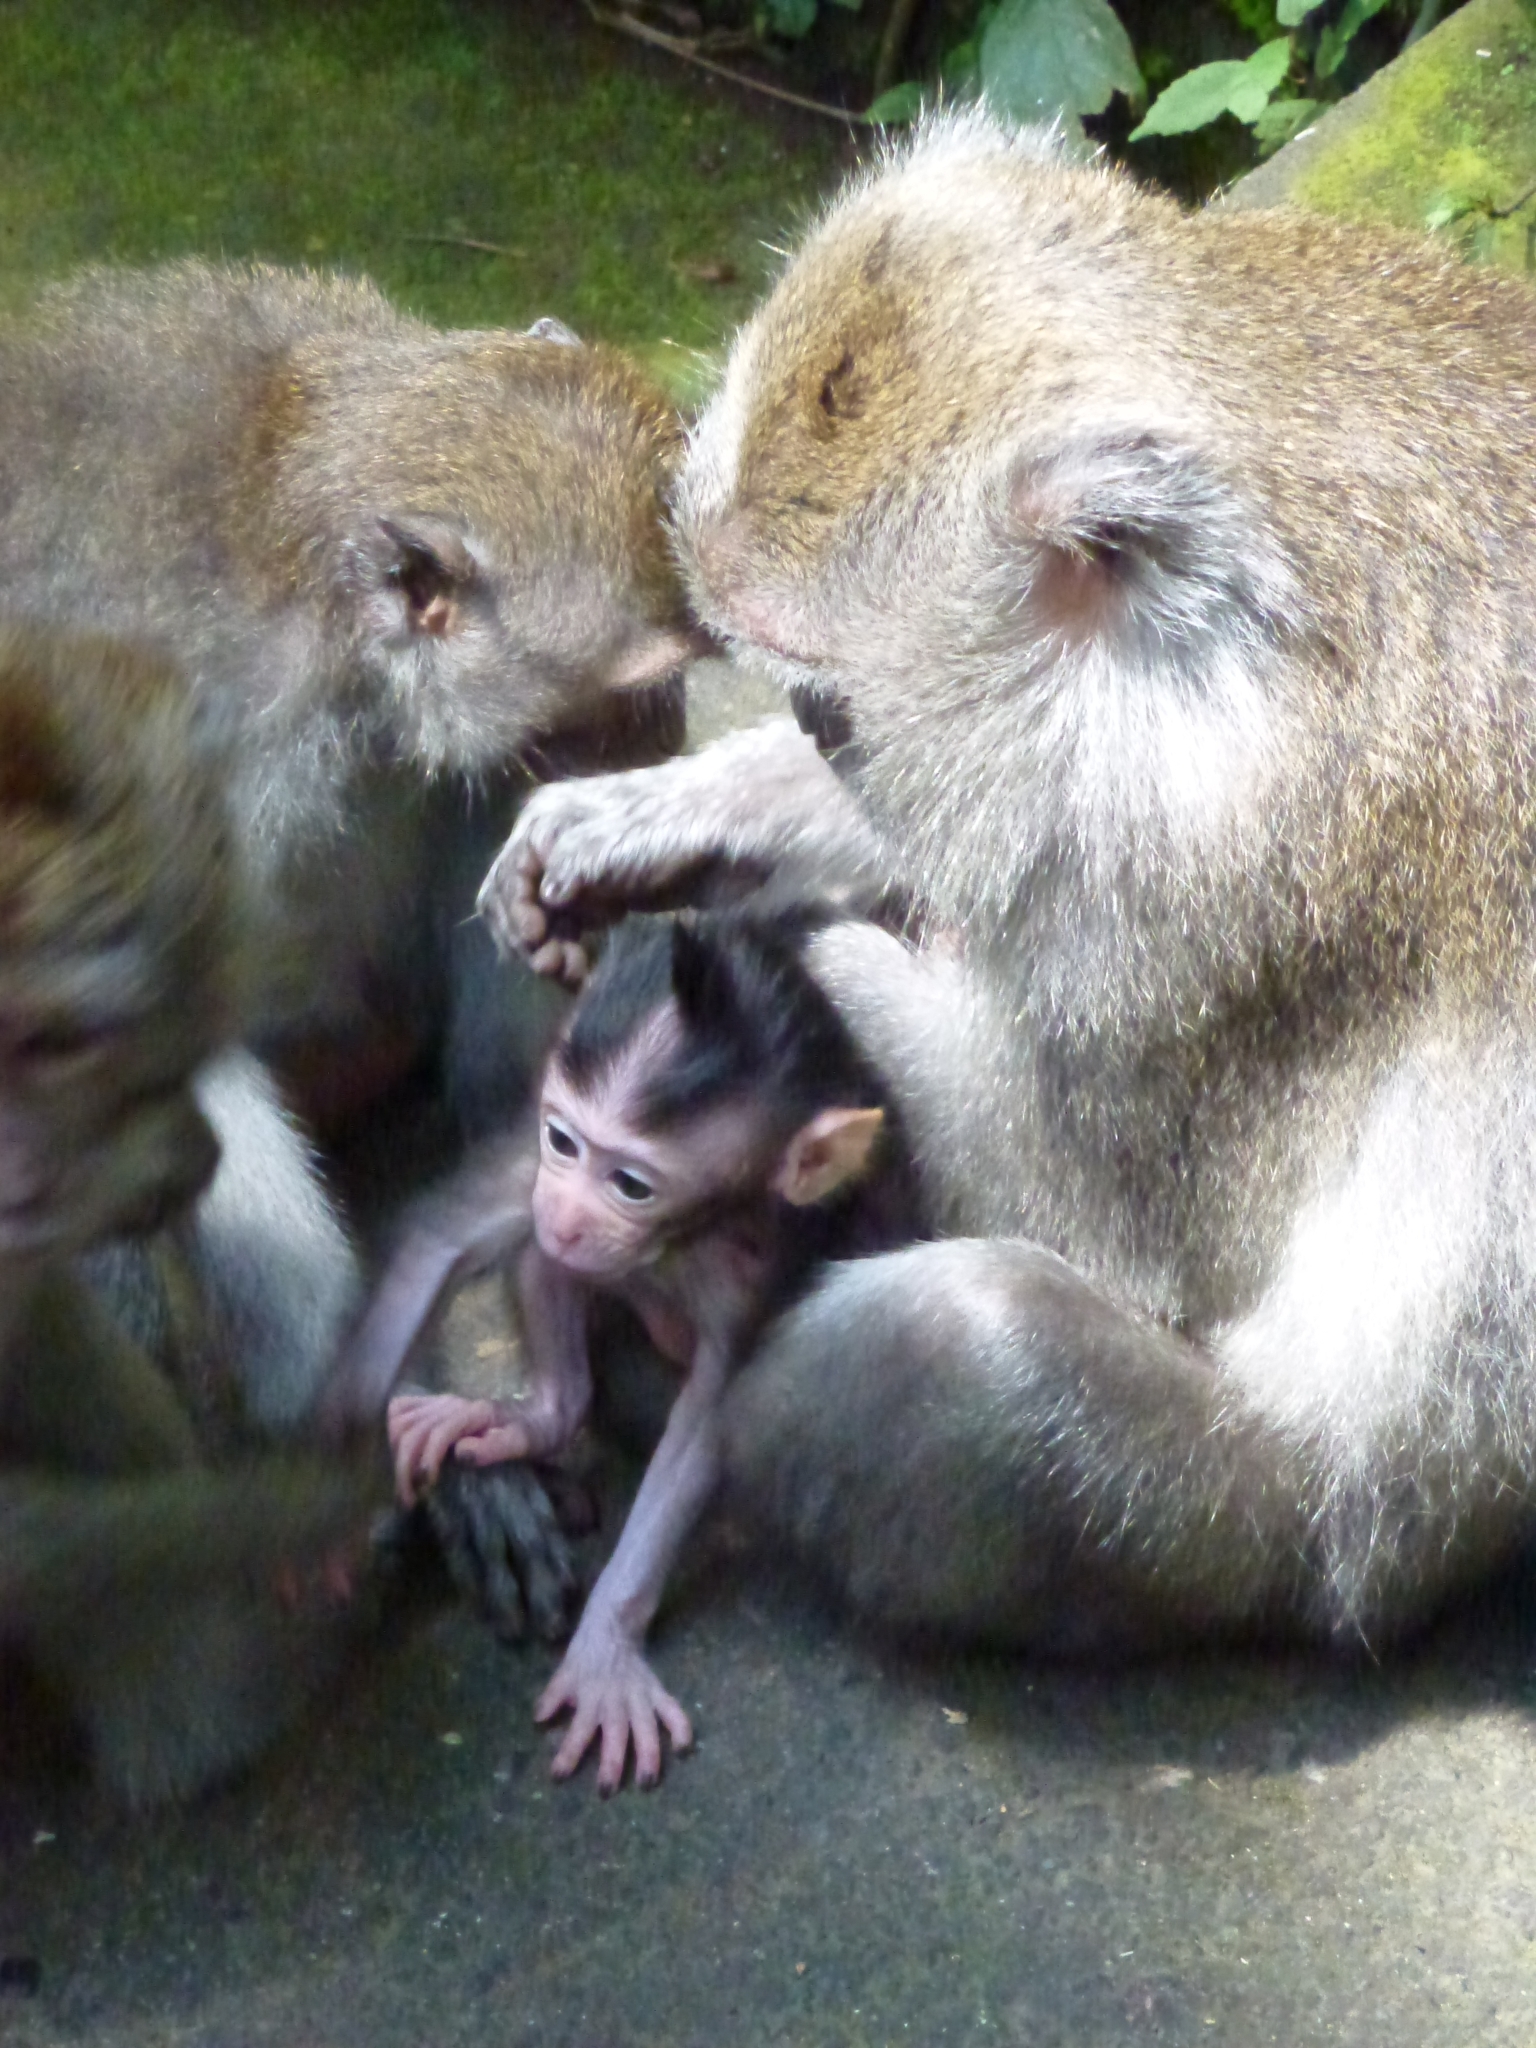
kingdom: Animalia
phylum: Chordata
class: Mammalia
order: Primates
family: Cercopithecidae
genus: Macaca
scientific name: Macaca fascicularis
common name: Crab-eating macaque
